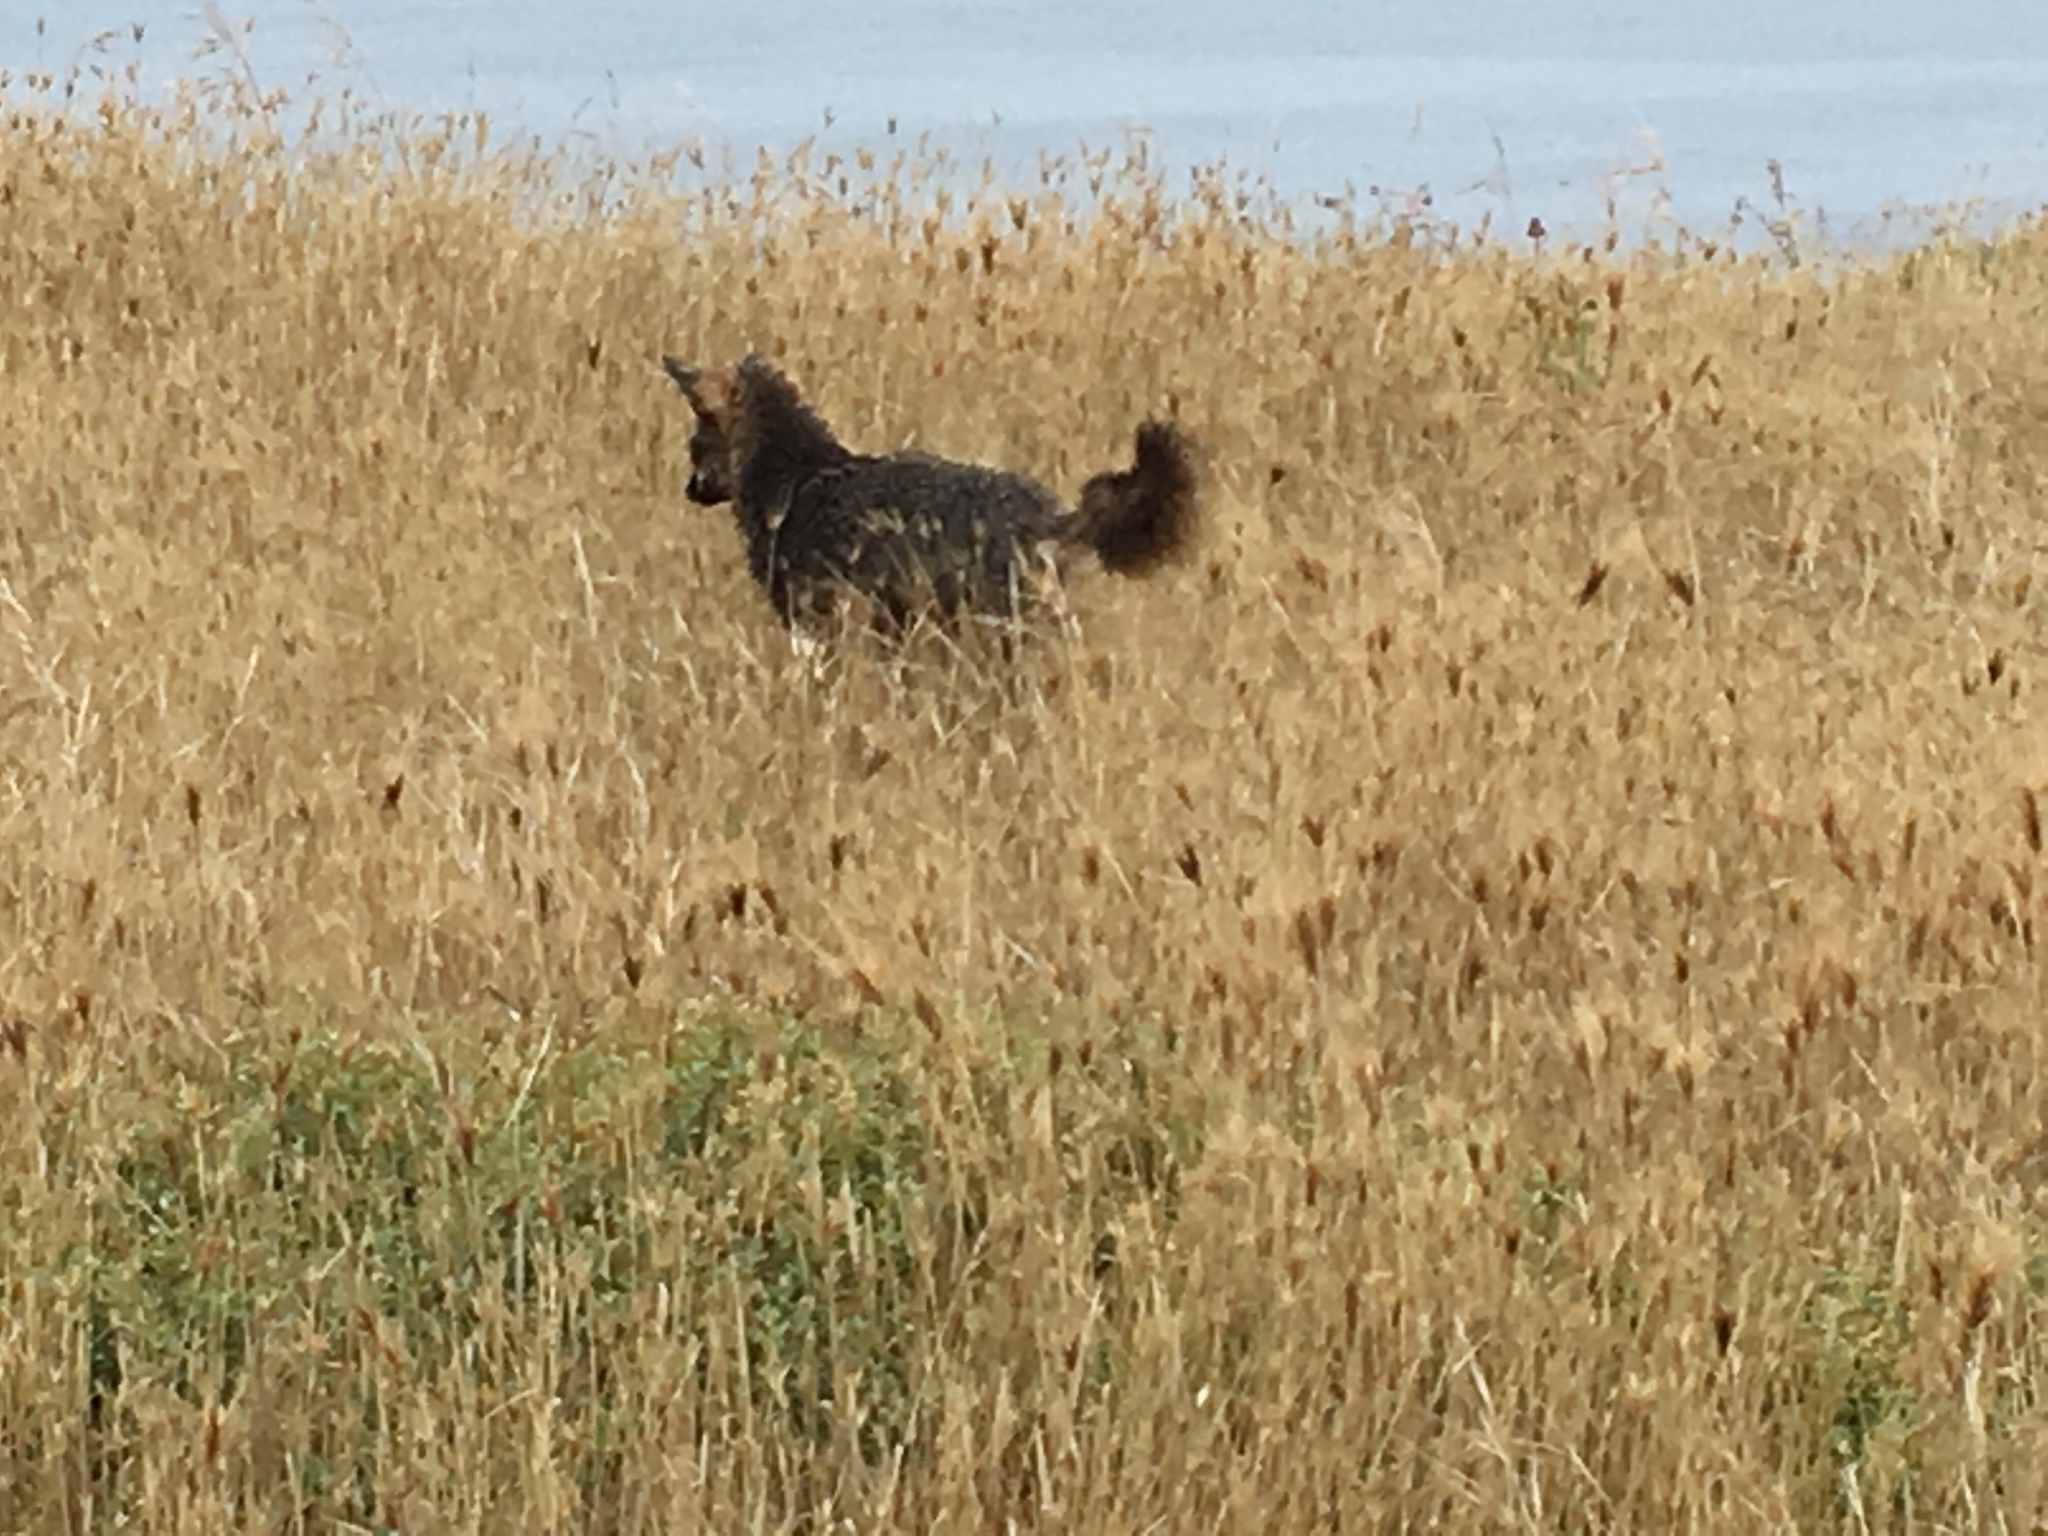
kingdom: Animalia
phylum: Chordata
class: Mammalia
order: Carnivora
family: Canidae
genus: Urocyon
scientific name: Urocyon littoralis
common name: Island gray fox
